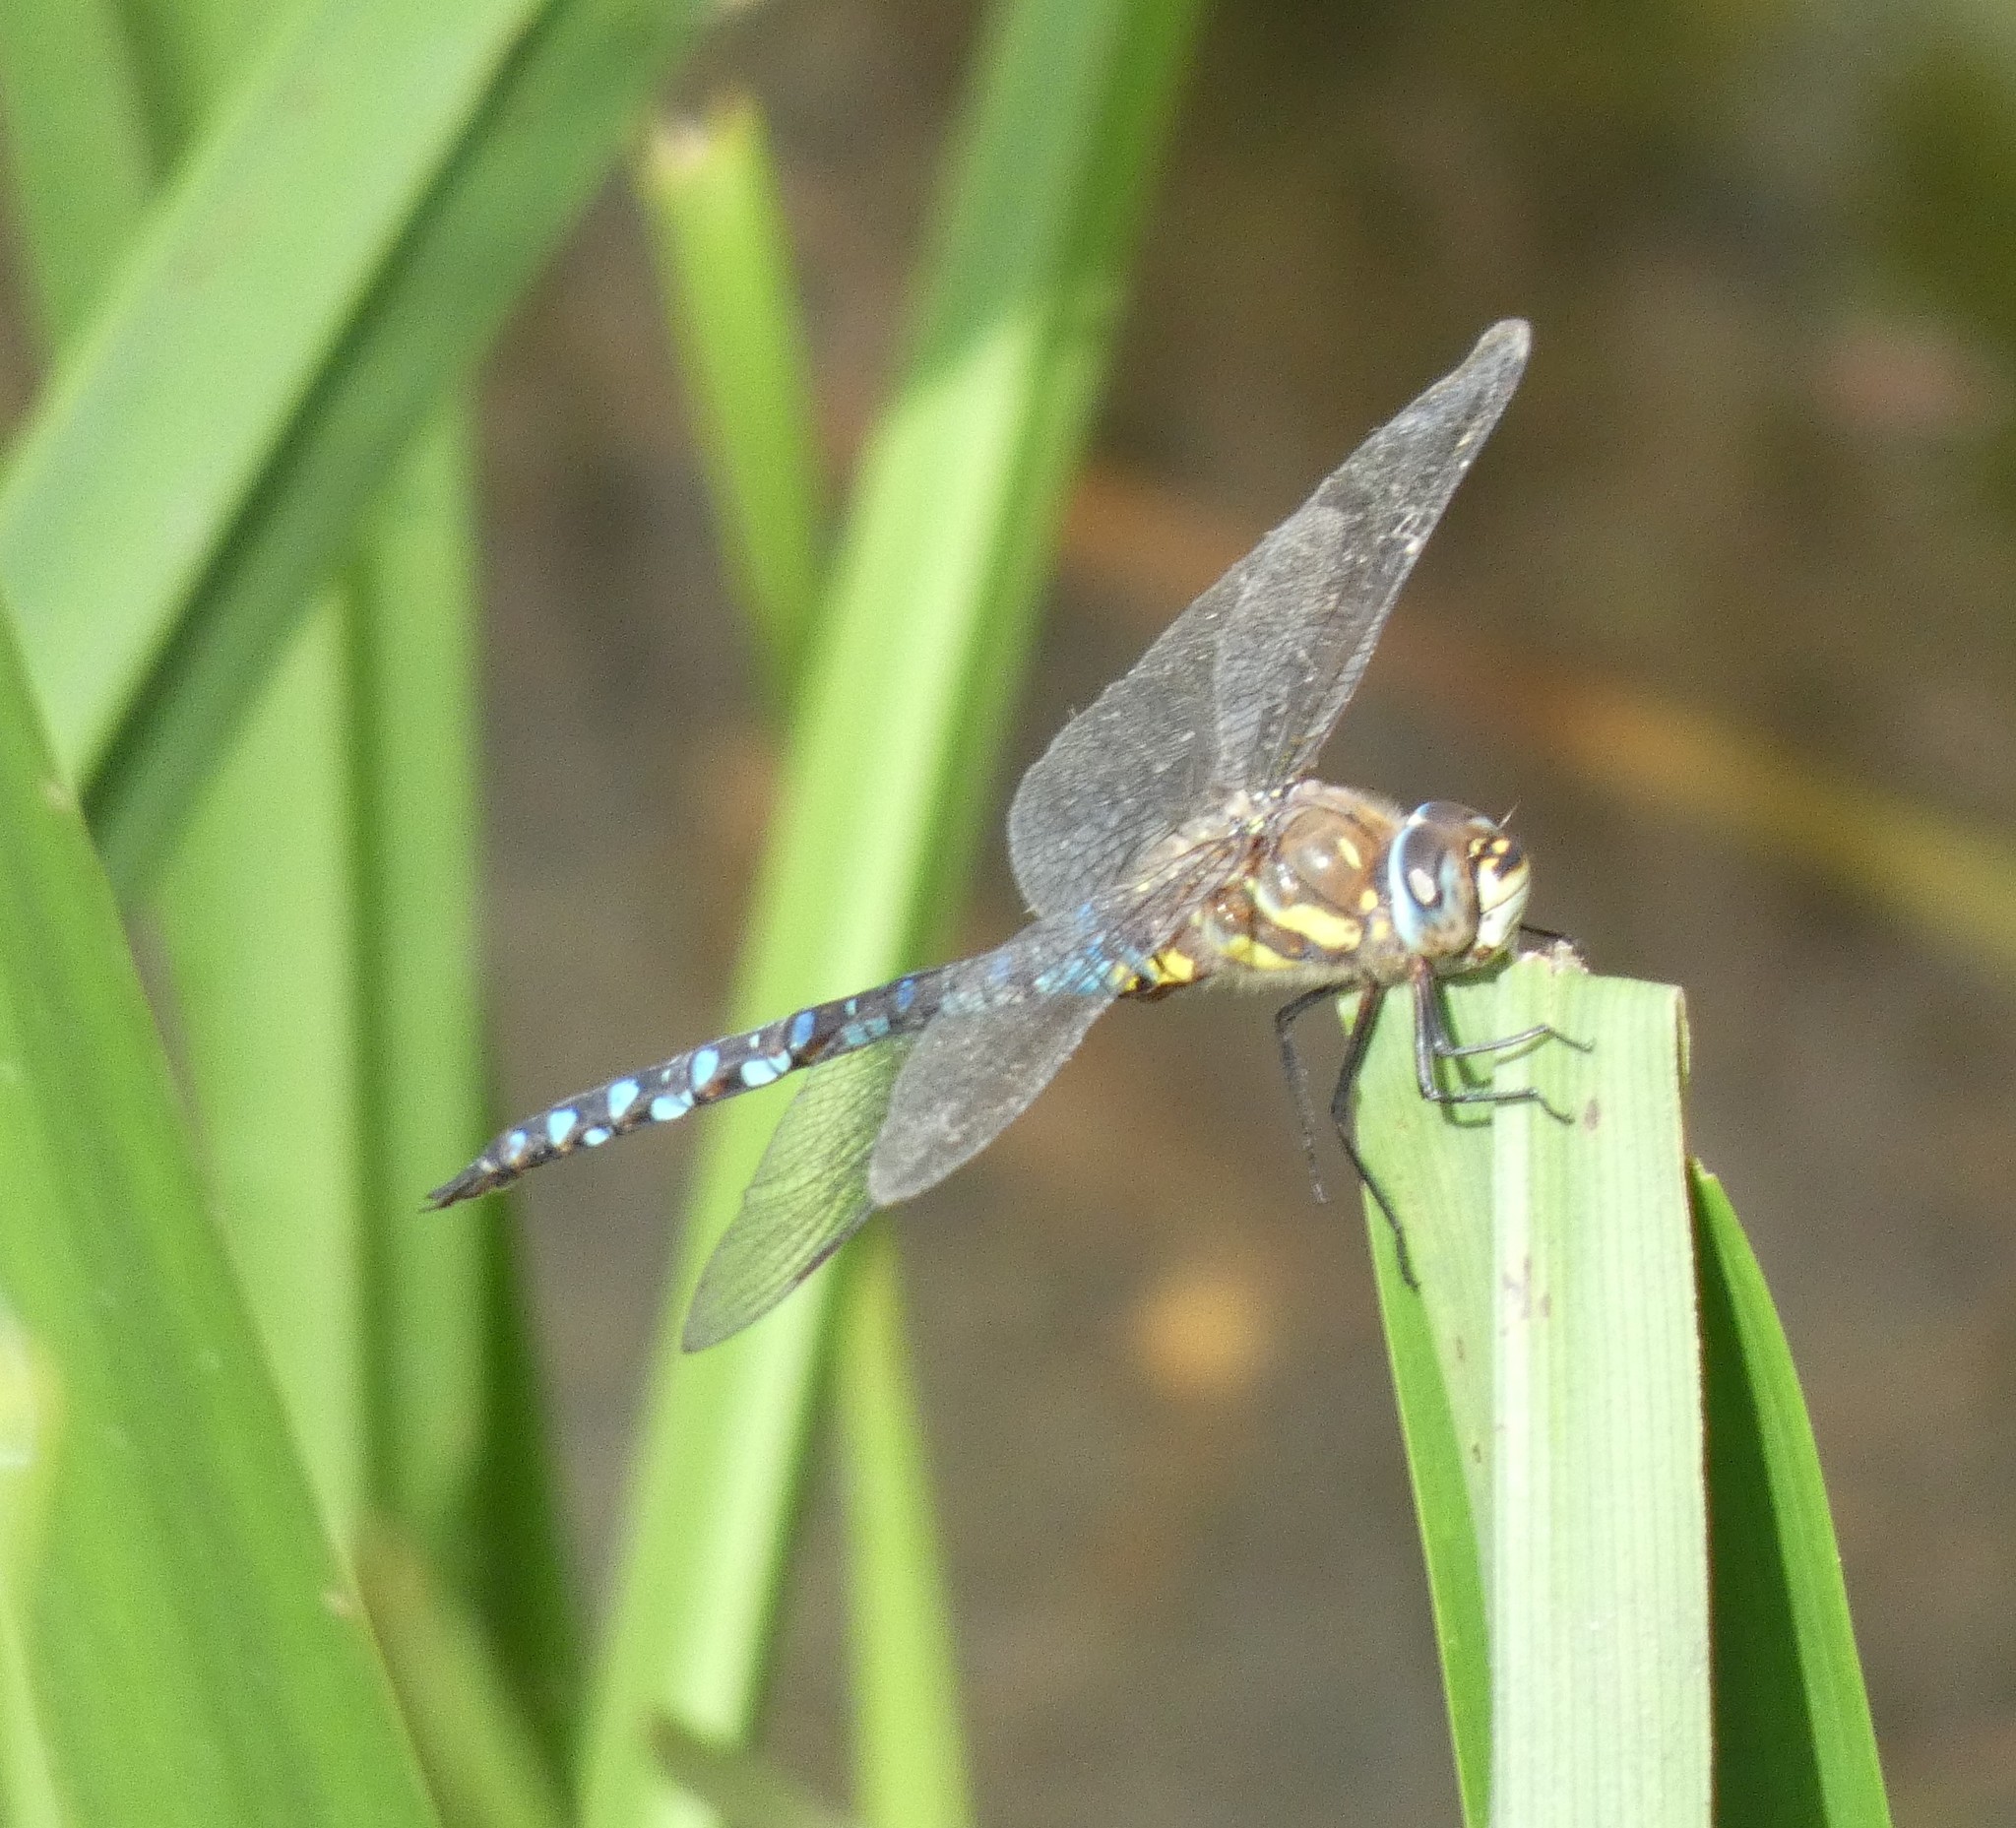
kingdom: Animalia
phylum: Arthropoda
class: Insecta
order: Odonata
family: Aeshnidae
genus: Aeshna
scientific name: Aeshna mixta
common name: Migrant hawker
